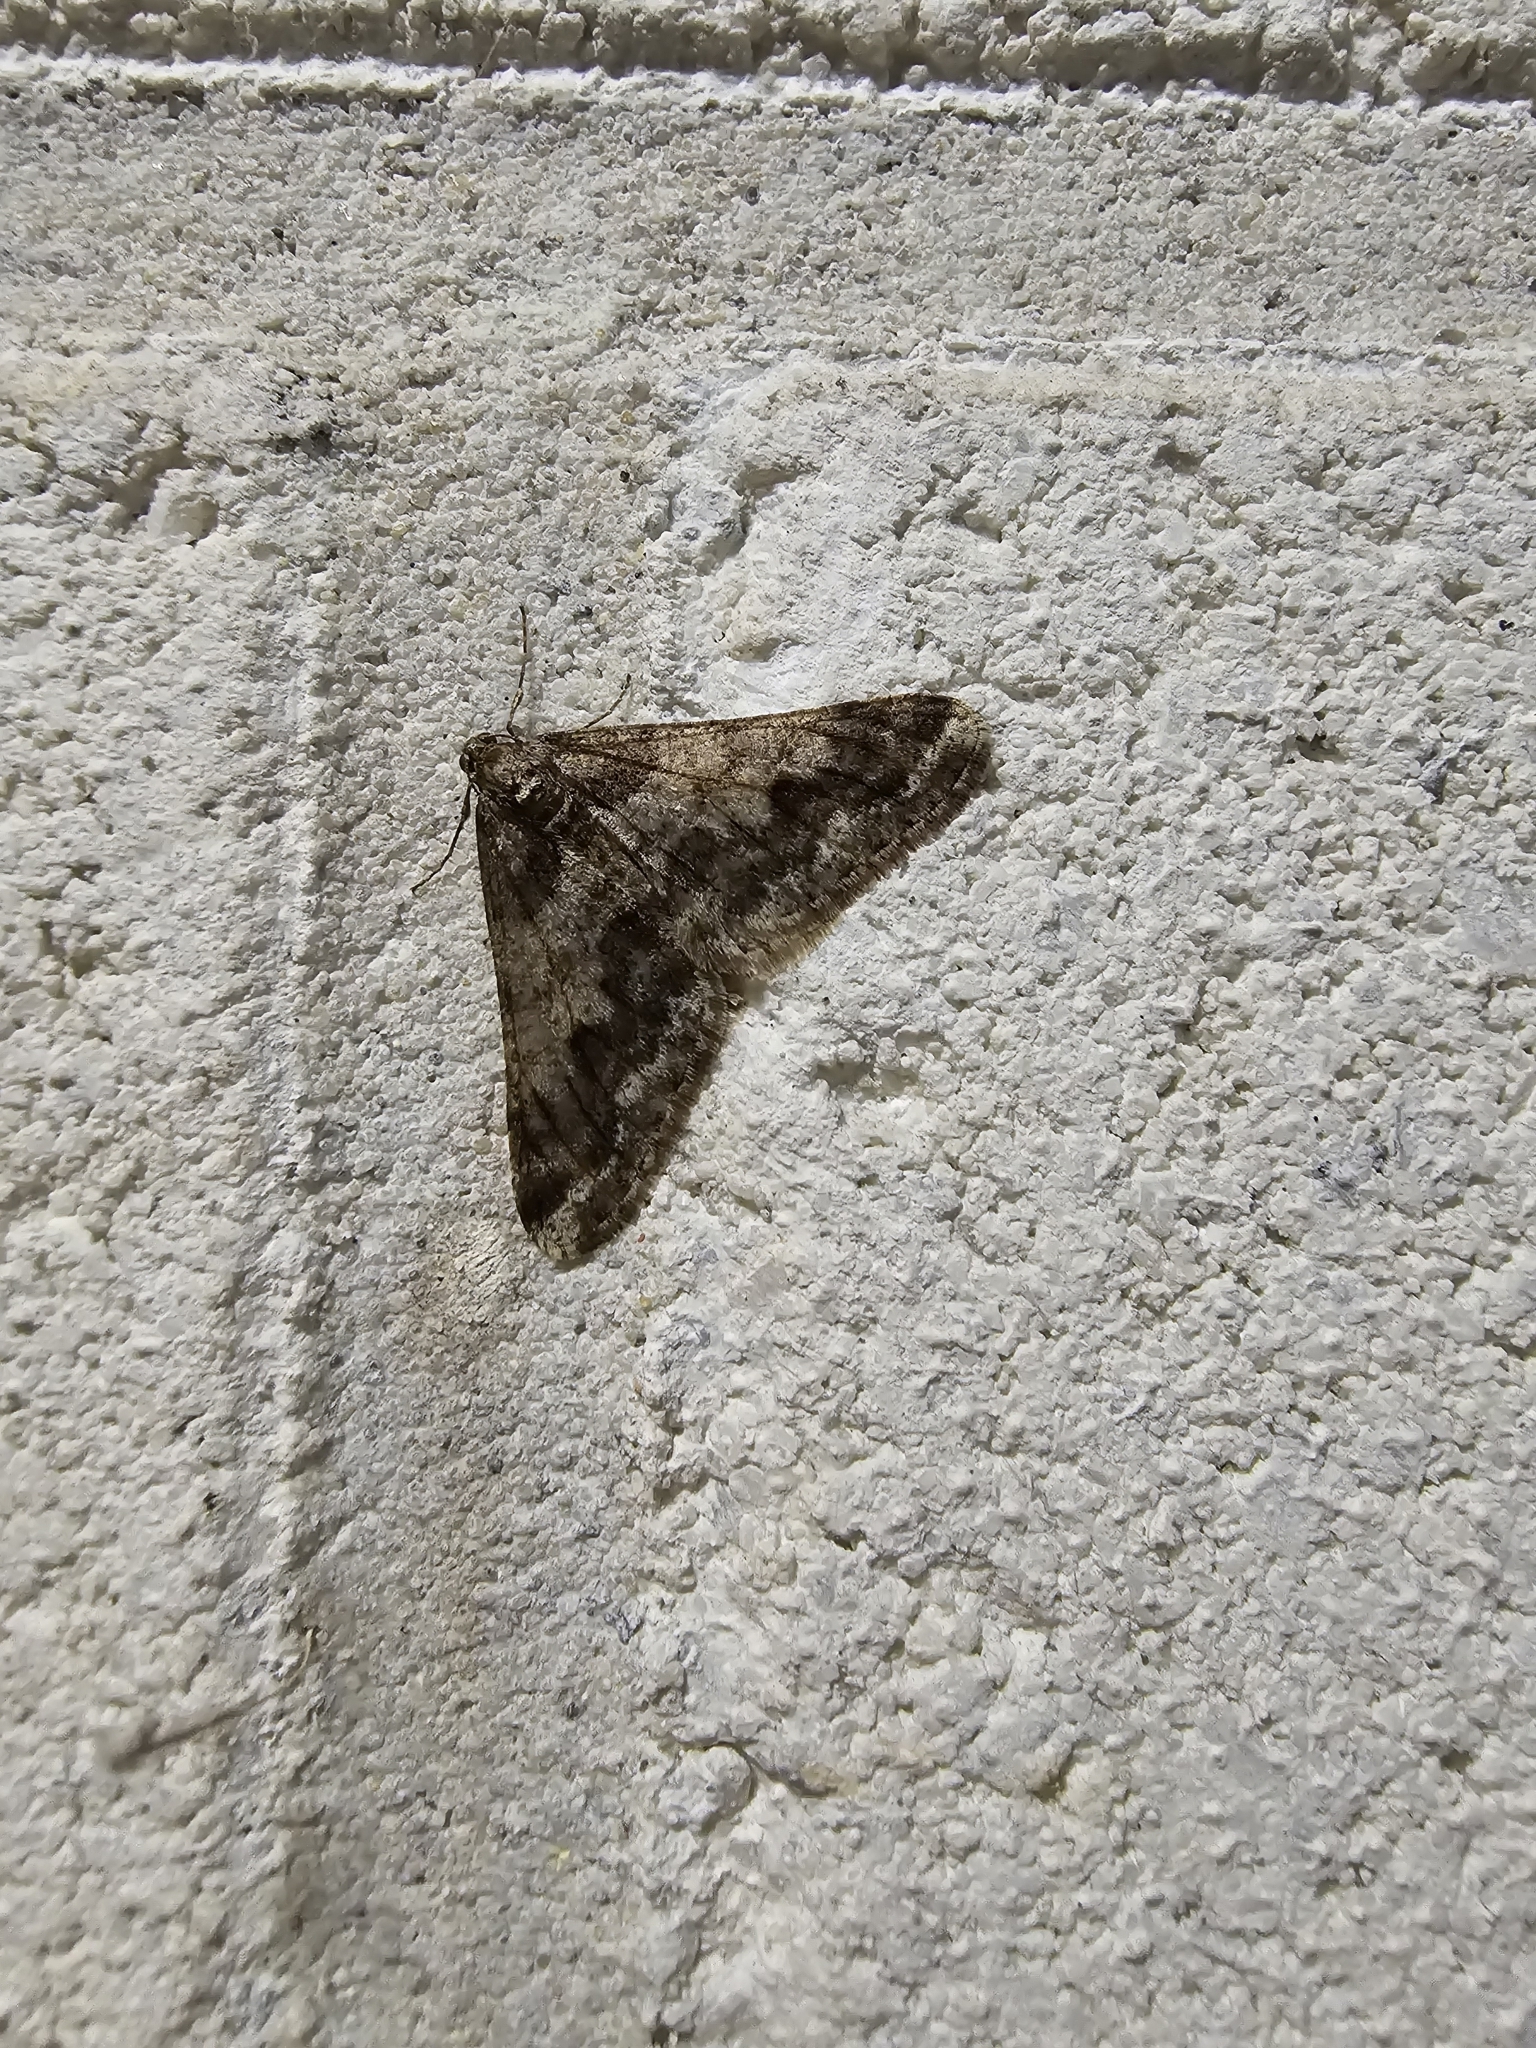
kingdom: Animalia
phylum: Arthropoda
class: Insecta
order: Lepidoptera
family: Geometridae
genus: Agriopis
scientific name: Agriopis leucophaearia
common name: Spring usher
